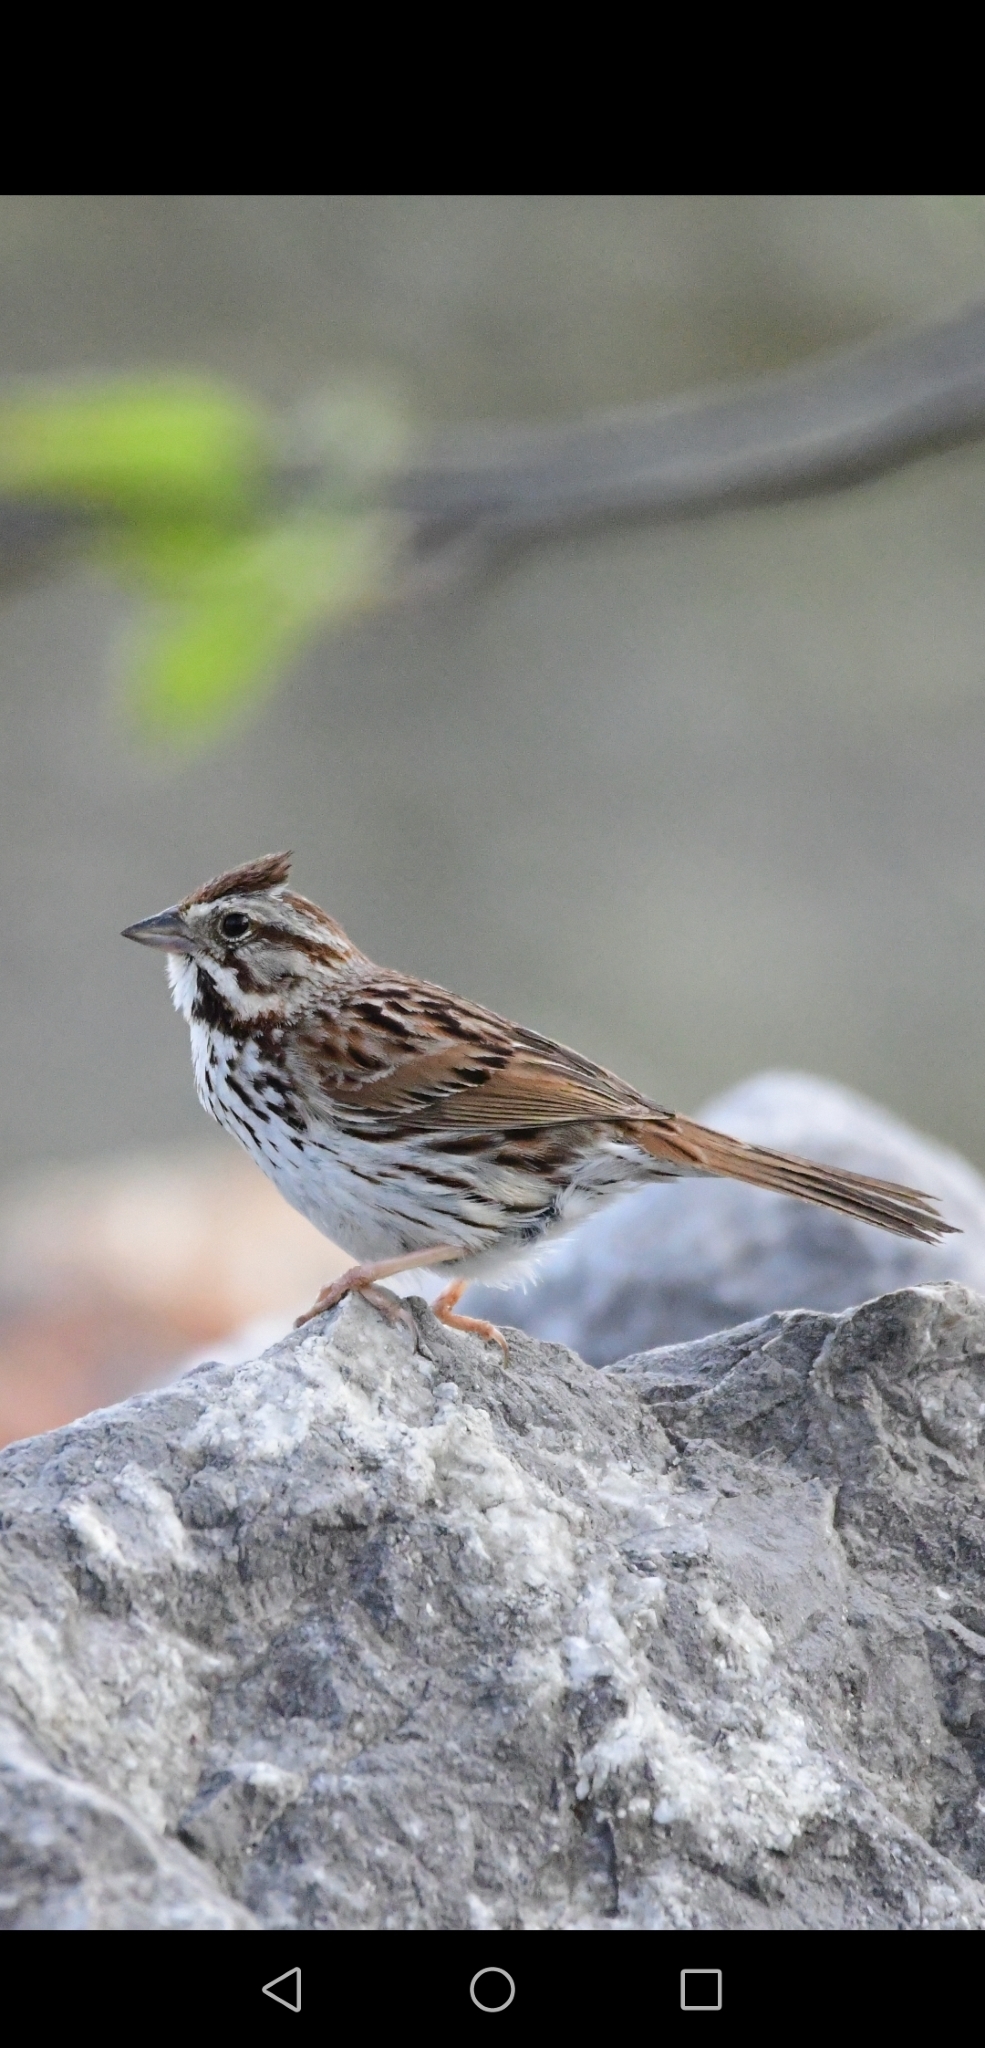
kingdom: Animalia
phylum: Chordata
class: Aves
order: Passeriformes
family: Passerellidae
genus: Melospiza
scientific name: Melospiza melodia
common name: Song sparrow
